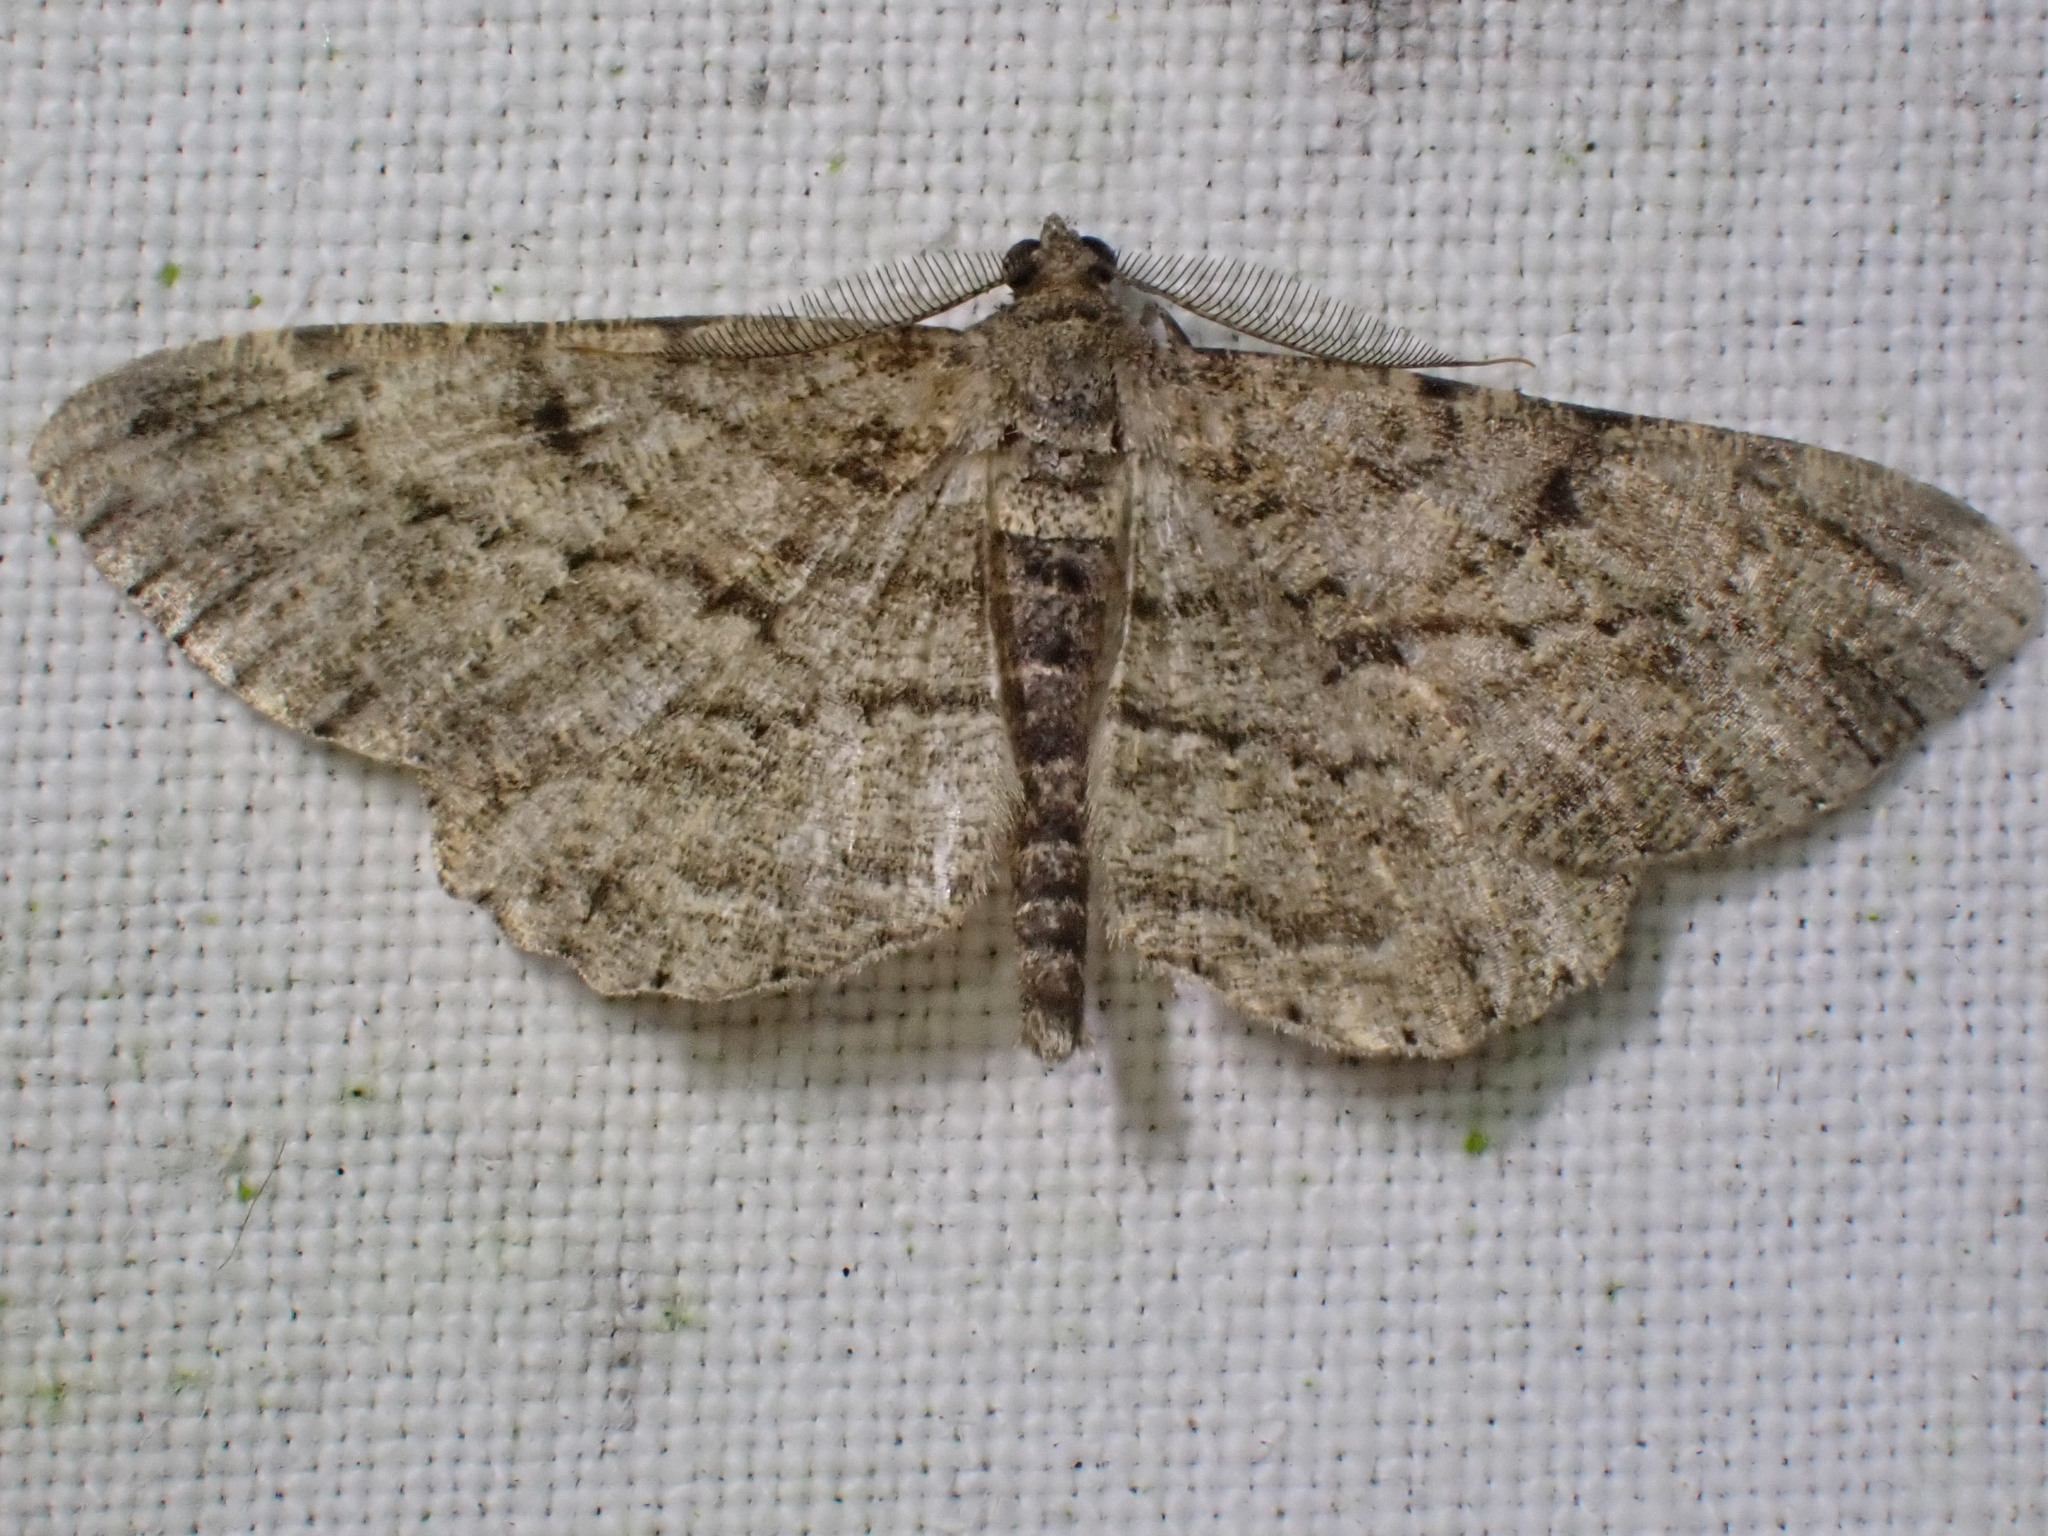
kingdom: Animalia
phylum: Arthropoda
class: Insecta
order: Lepidoptera
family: Geometridae
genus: Peribatodes
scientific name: Peribatodes rhomboidaria
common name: Willow beauty
